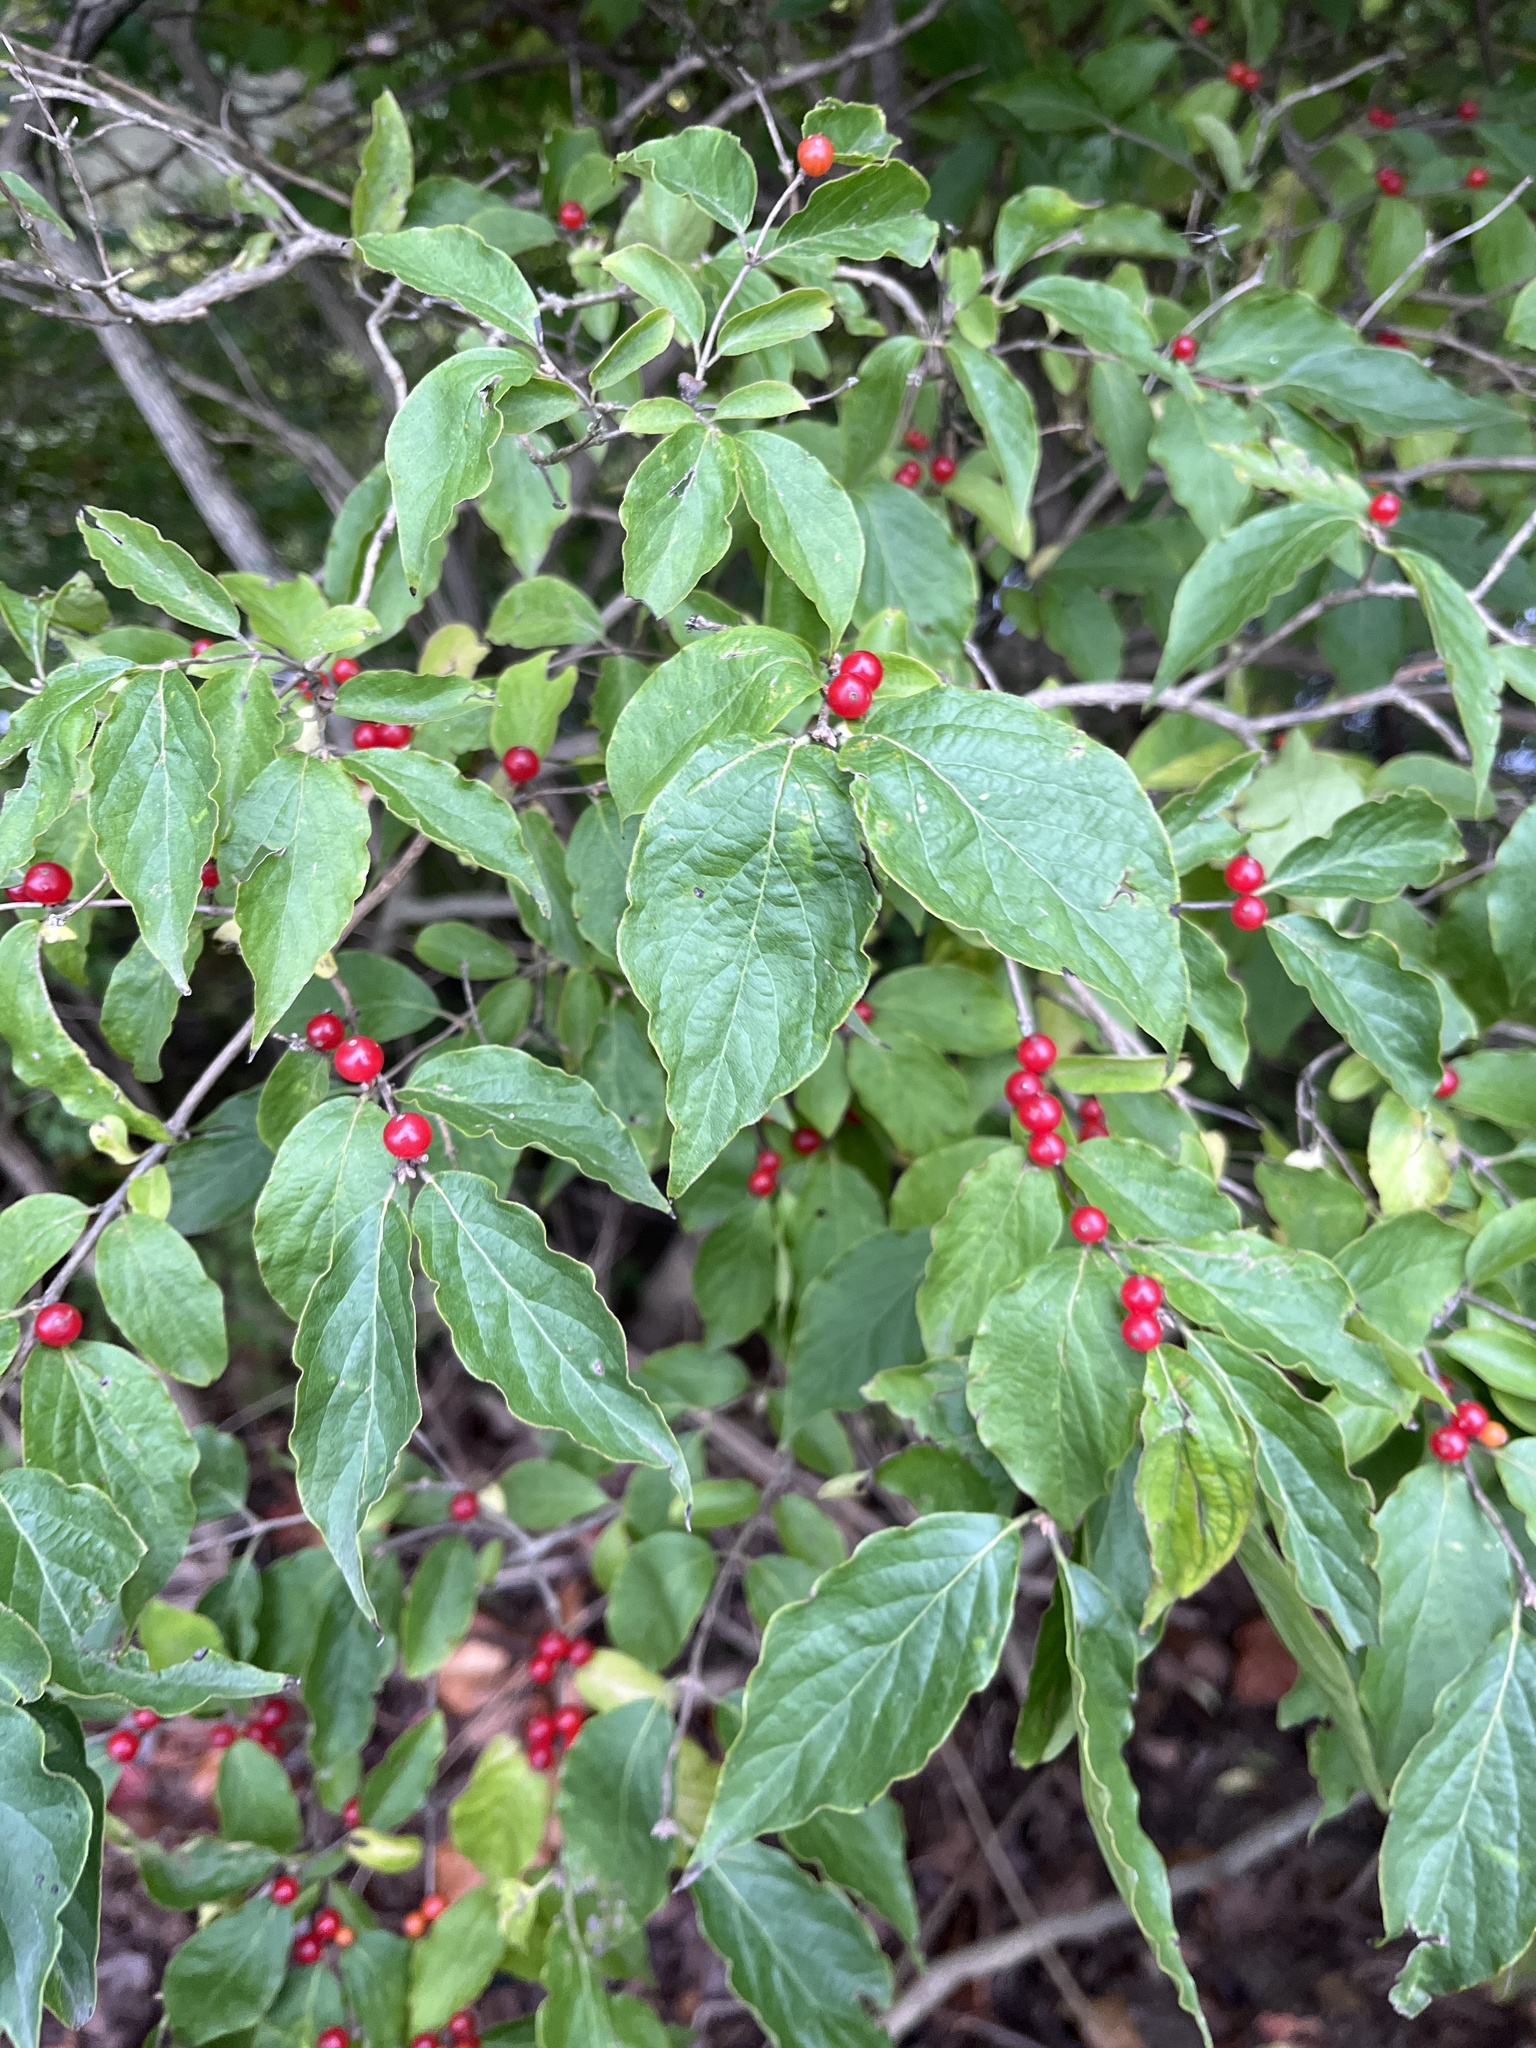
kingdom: Plantae
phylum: Tracheophyta
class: Magnoliopsida
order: Dipsacales
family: Caprifoliaceae
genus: Lonicera
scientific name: Lonicera maackii
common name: Amur honeysuckle
